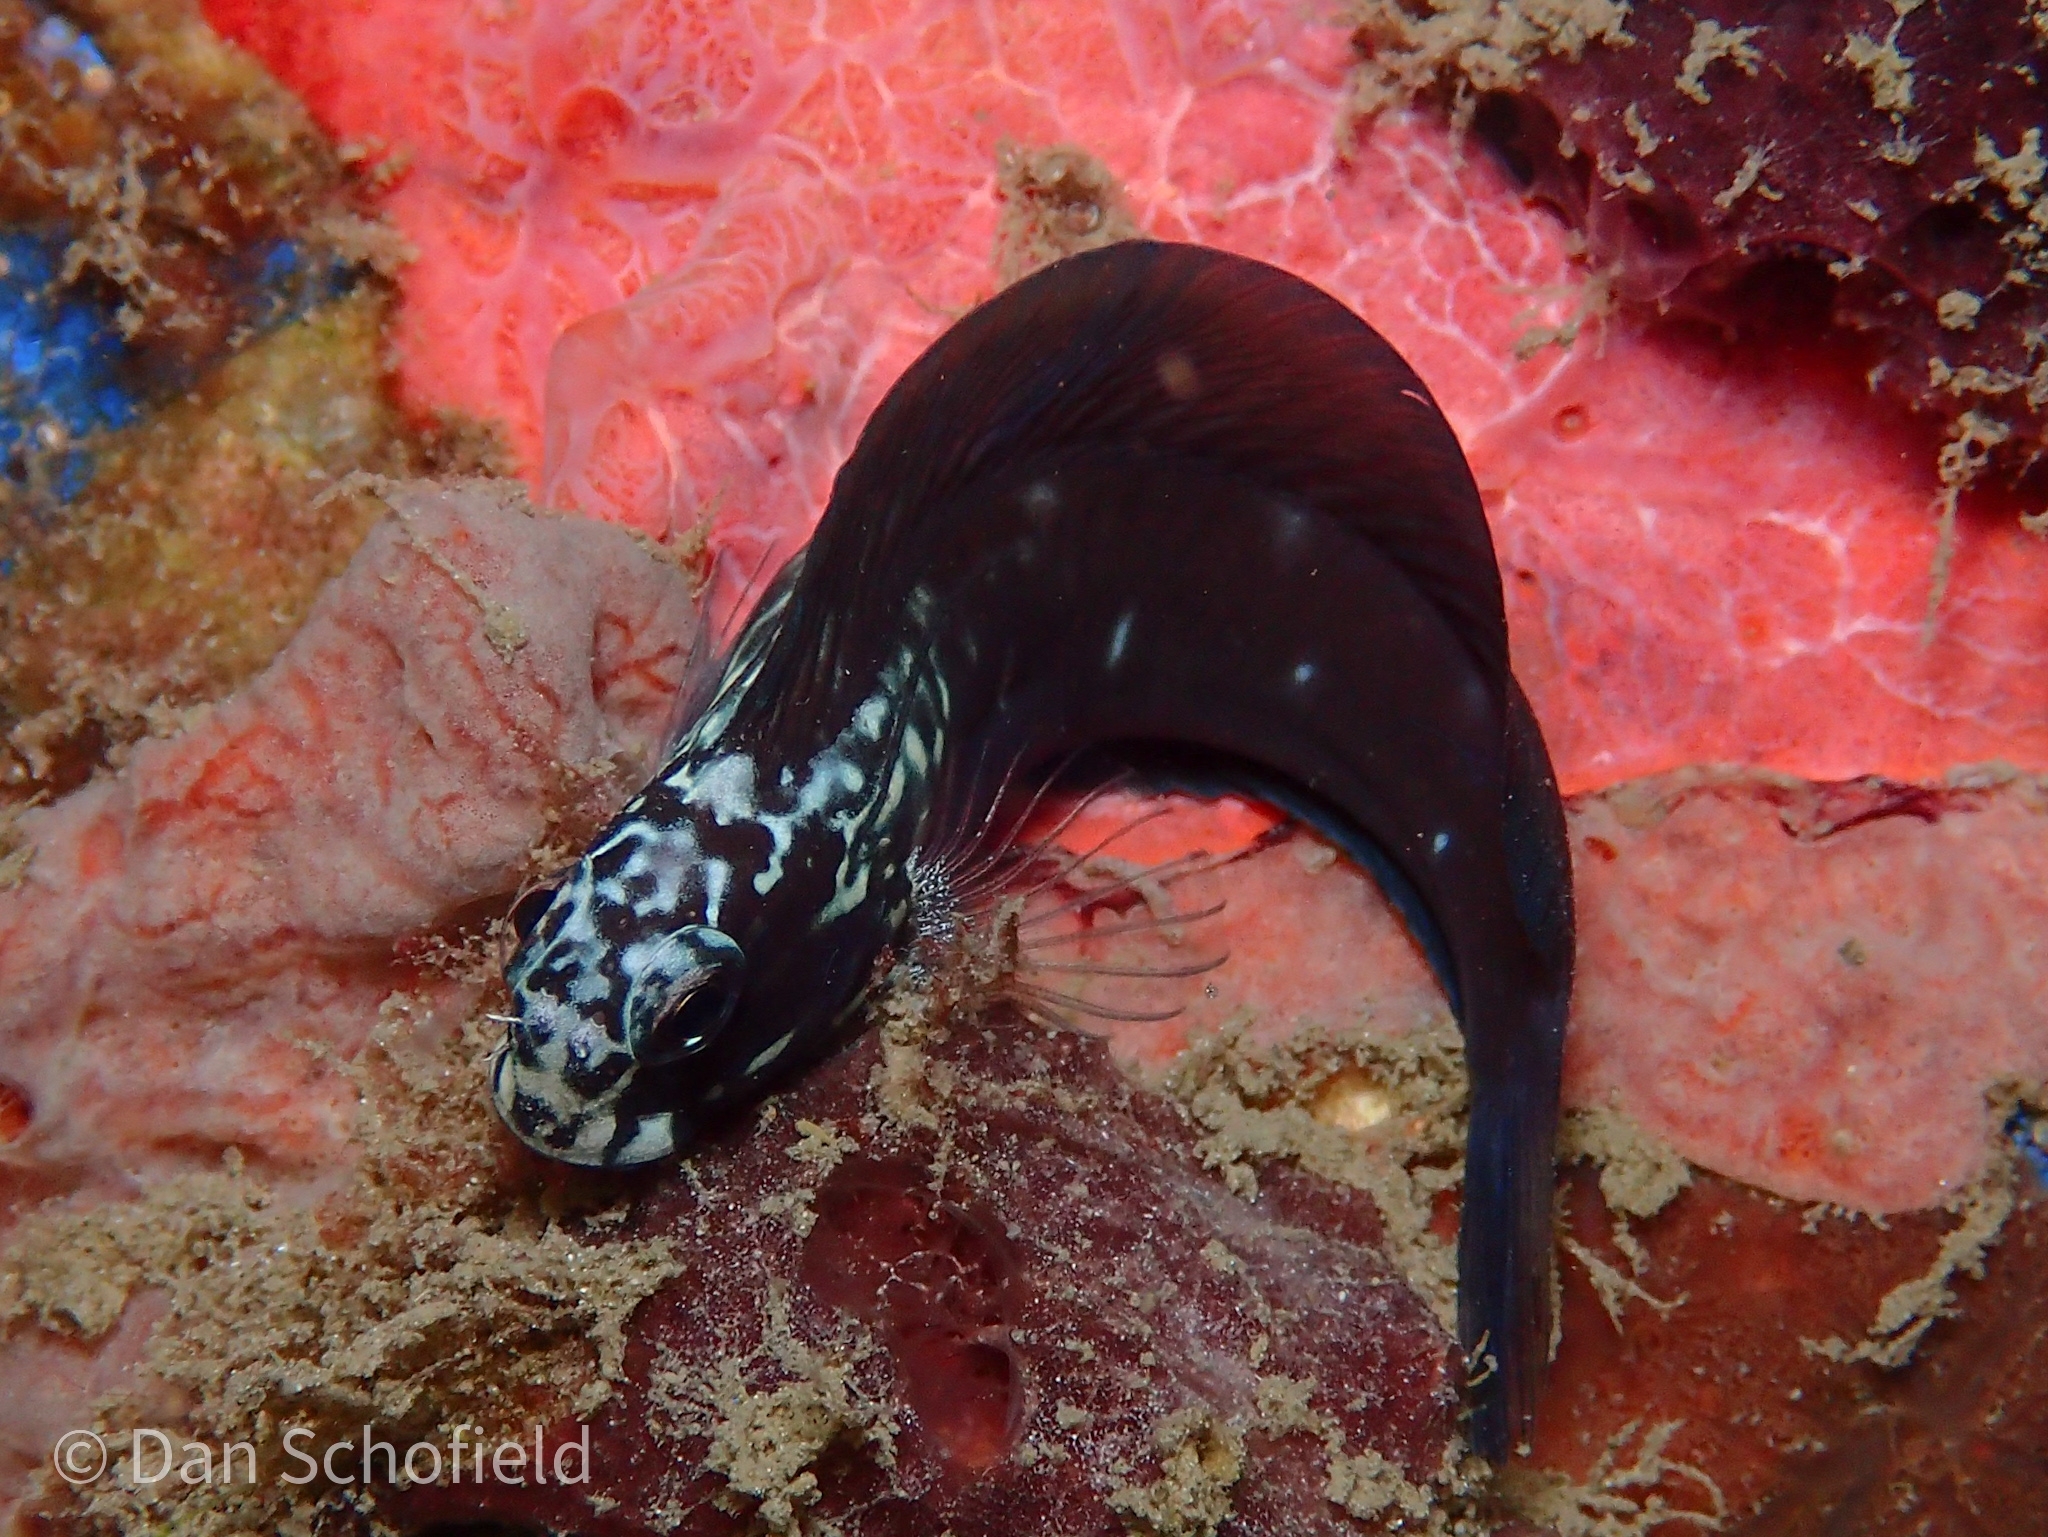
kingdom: Animalia
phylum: Chordata
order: Perciformes
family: Blenniidae
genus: Ecsenius
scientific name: Ecsenius namiyei
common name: Black comb-tooth
